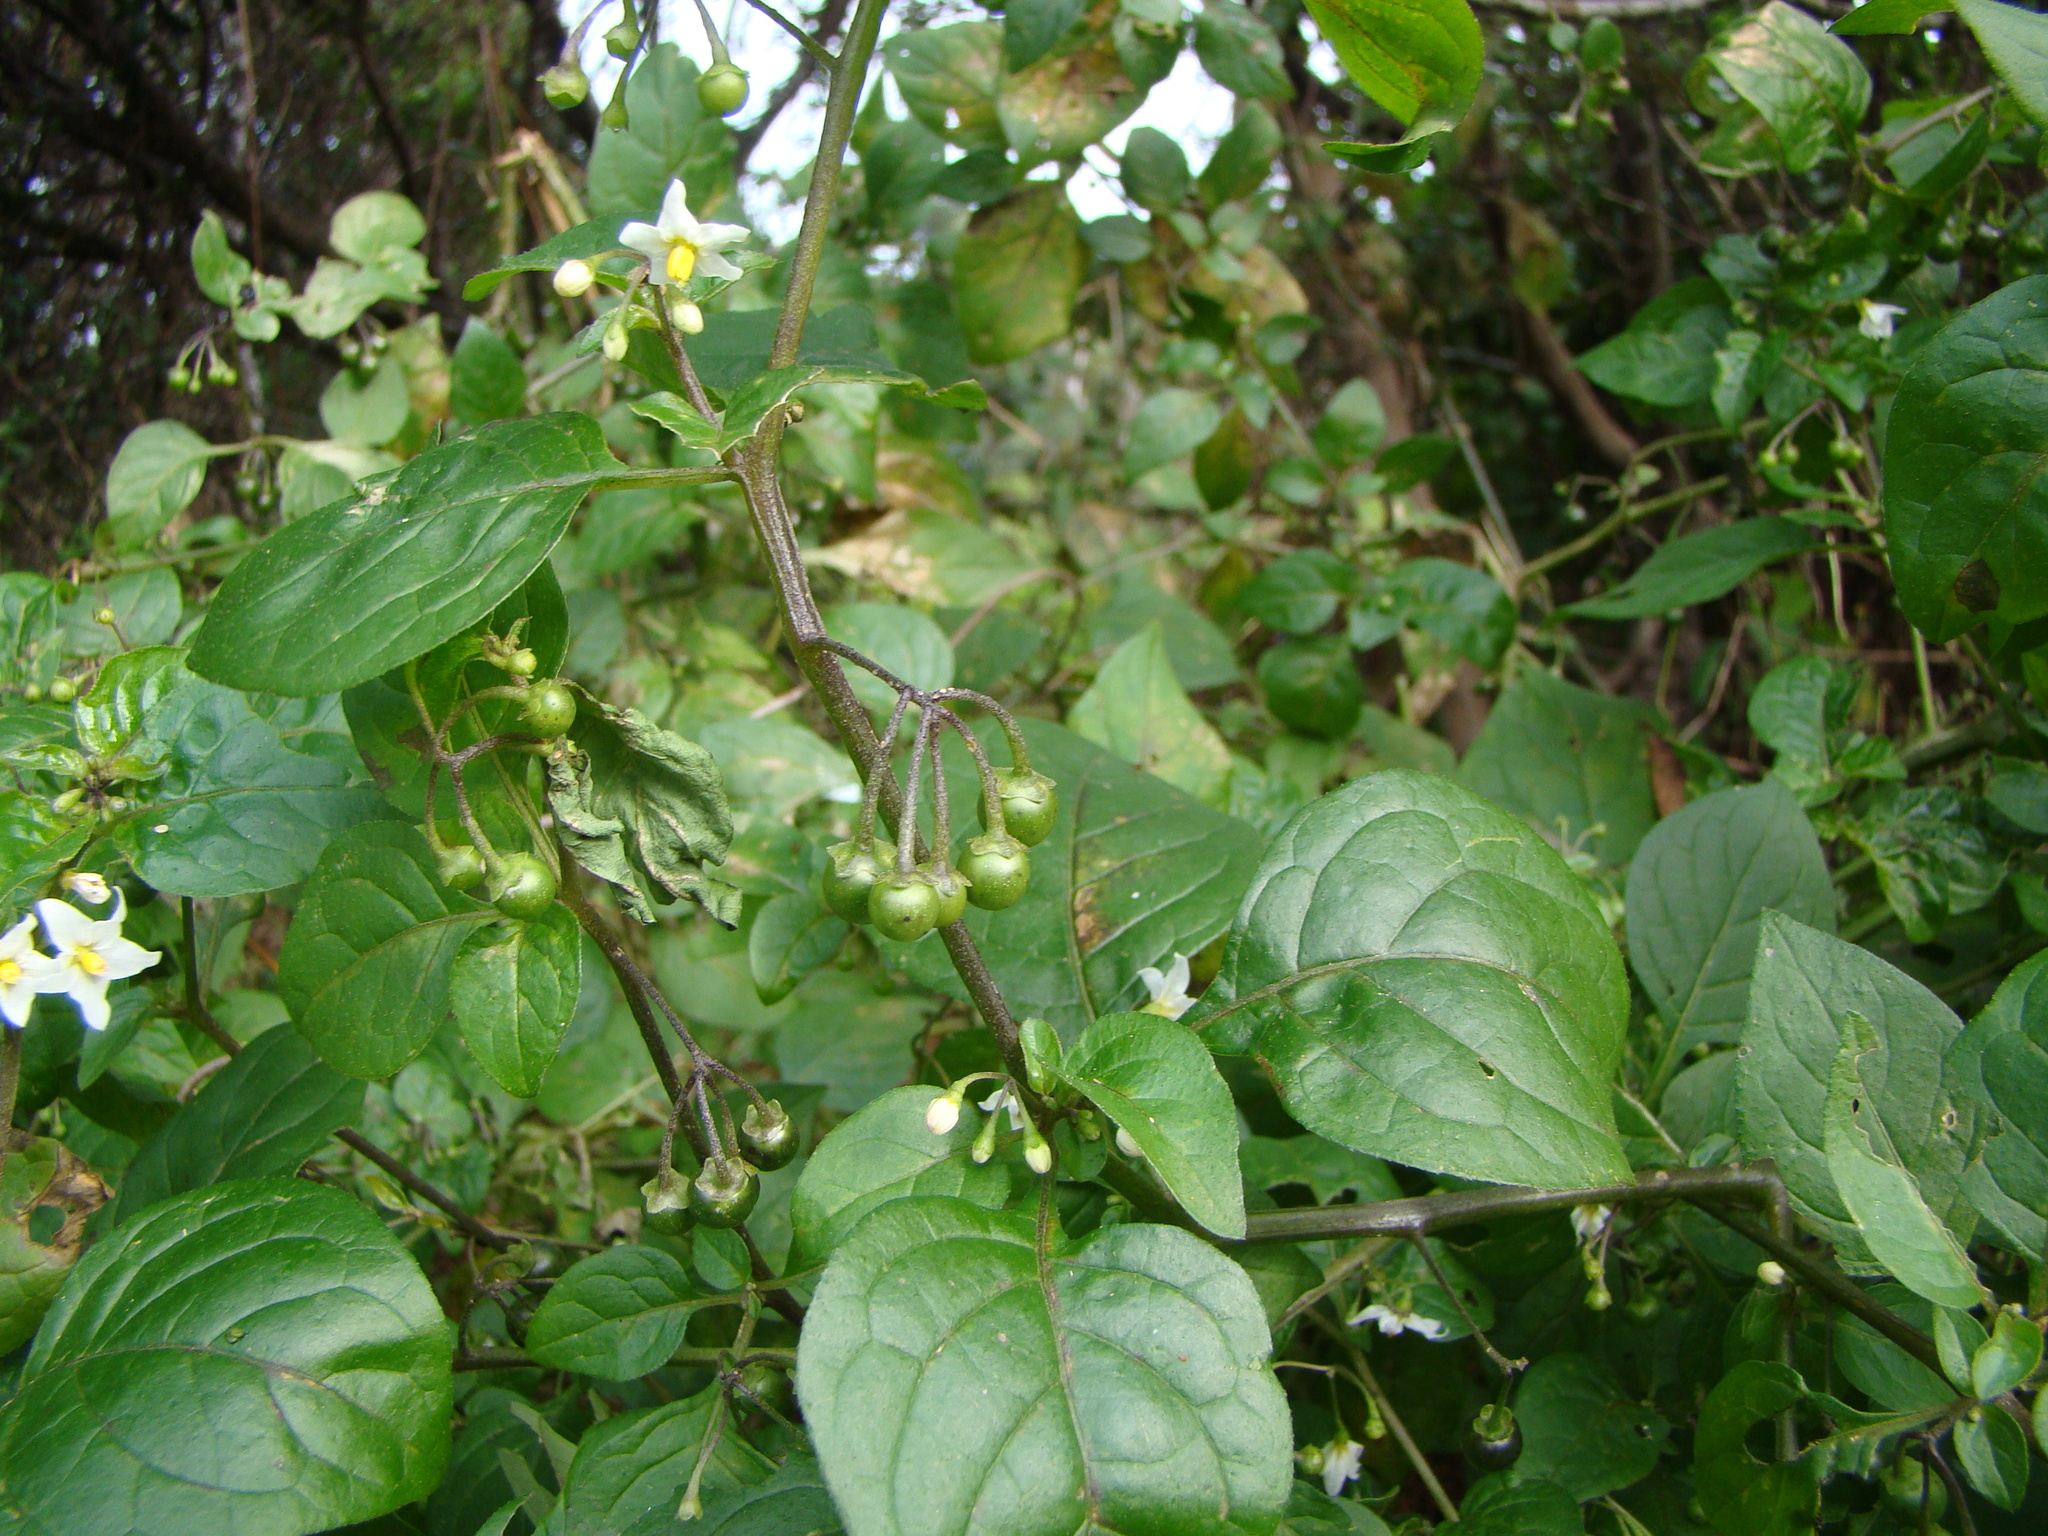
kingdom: Plantae
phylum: Tracheophyta
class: Magnoliopsida
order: Solanales
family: Solanaceae
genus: Solanum
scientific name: Solanum nigrum
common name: Black nightshade
